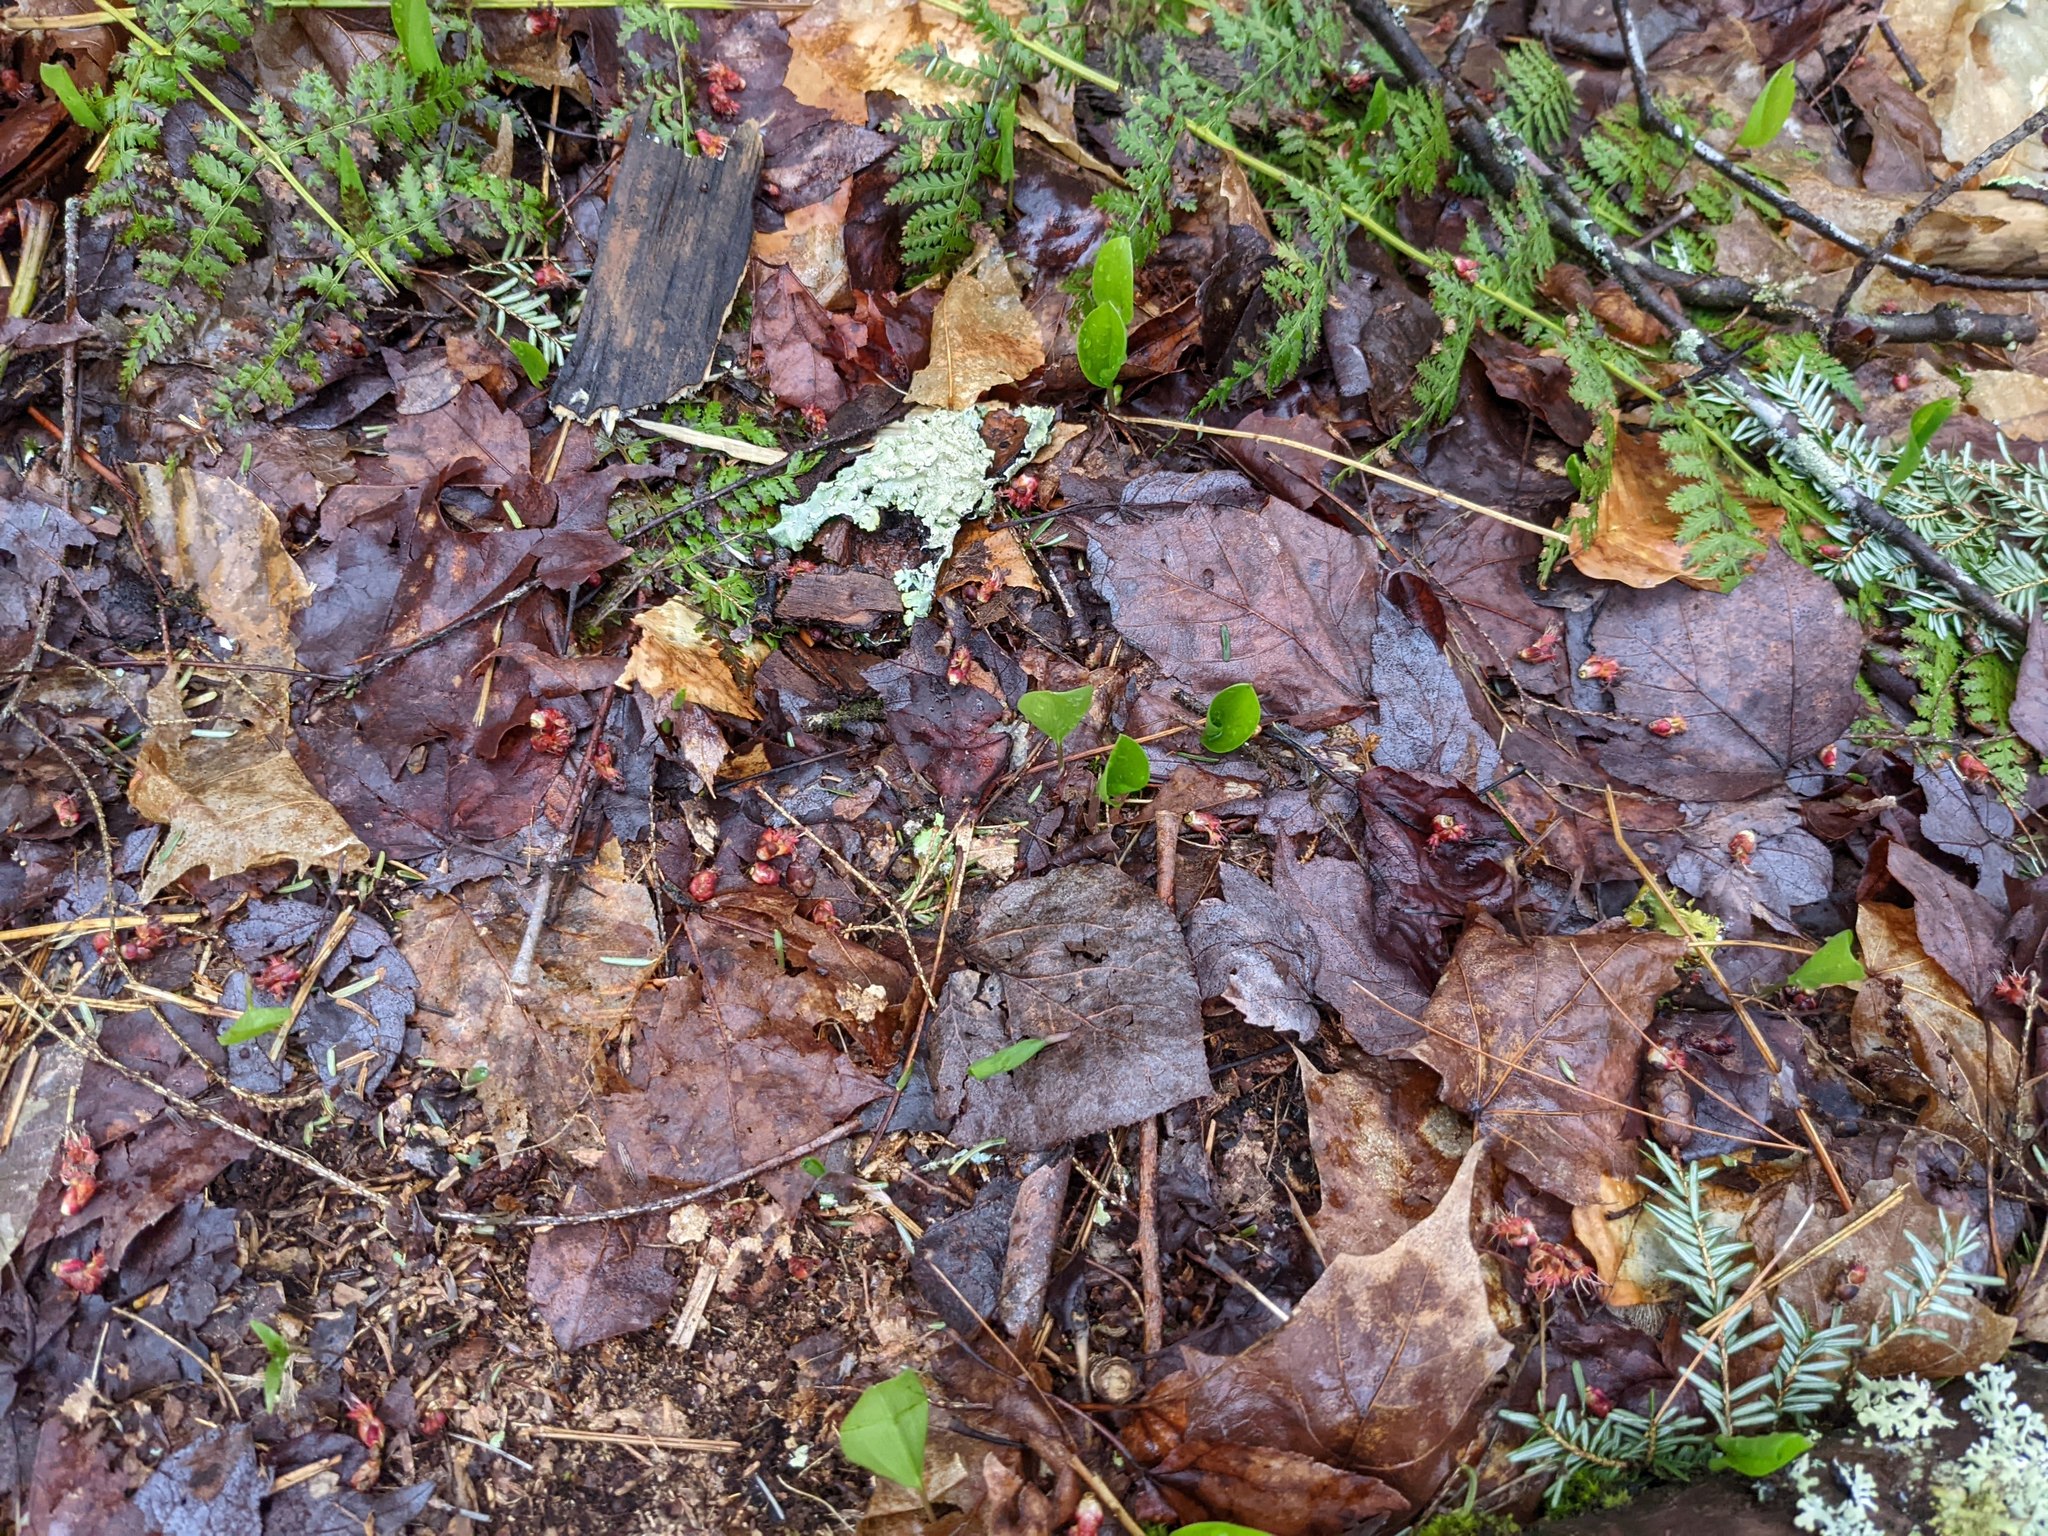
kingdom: Plantae
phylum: Tracheophyta
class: Liliopsida
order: Asparagales
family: Asparagaceae
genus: Maianthemum
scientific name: Maianthemum canadense
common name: False lily-of-the-valley
